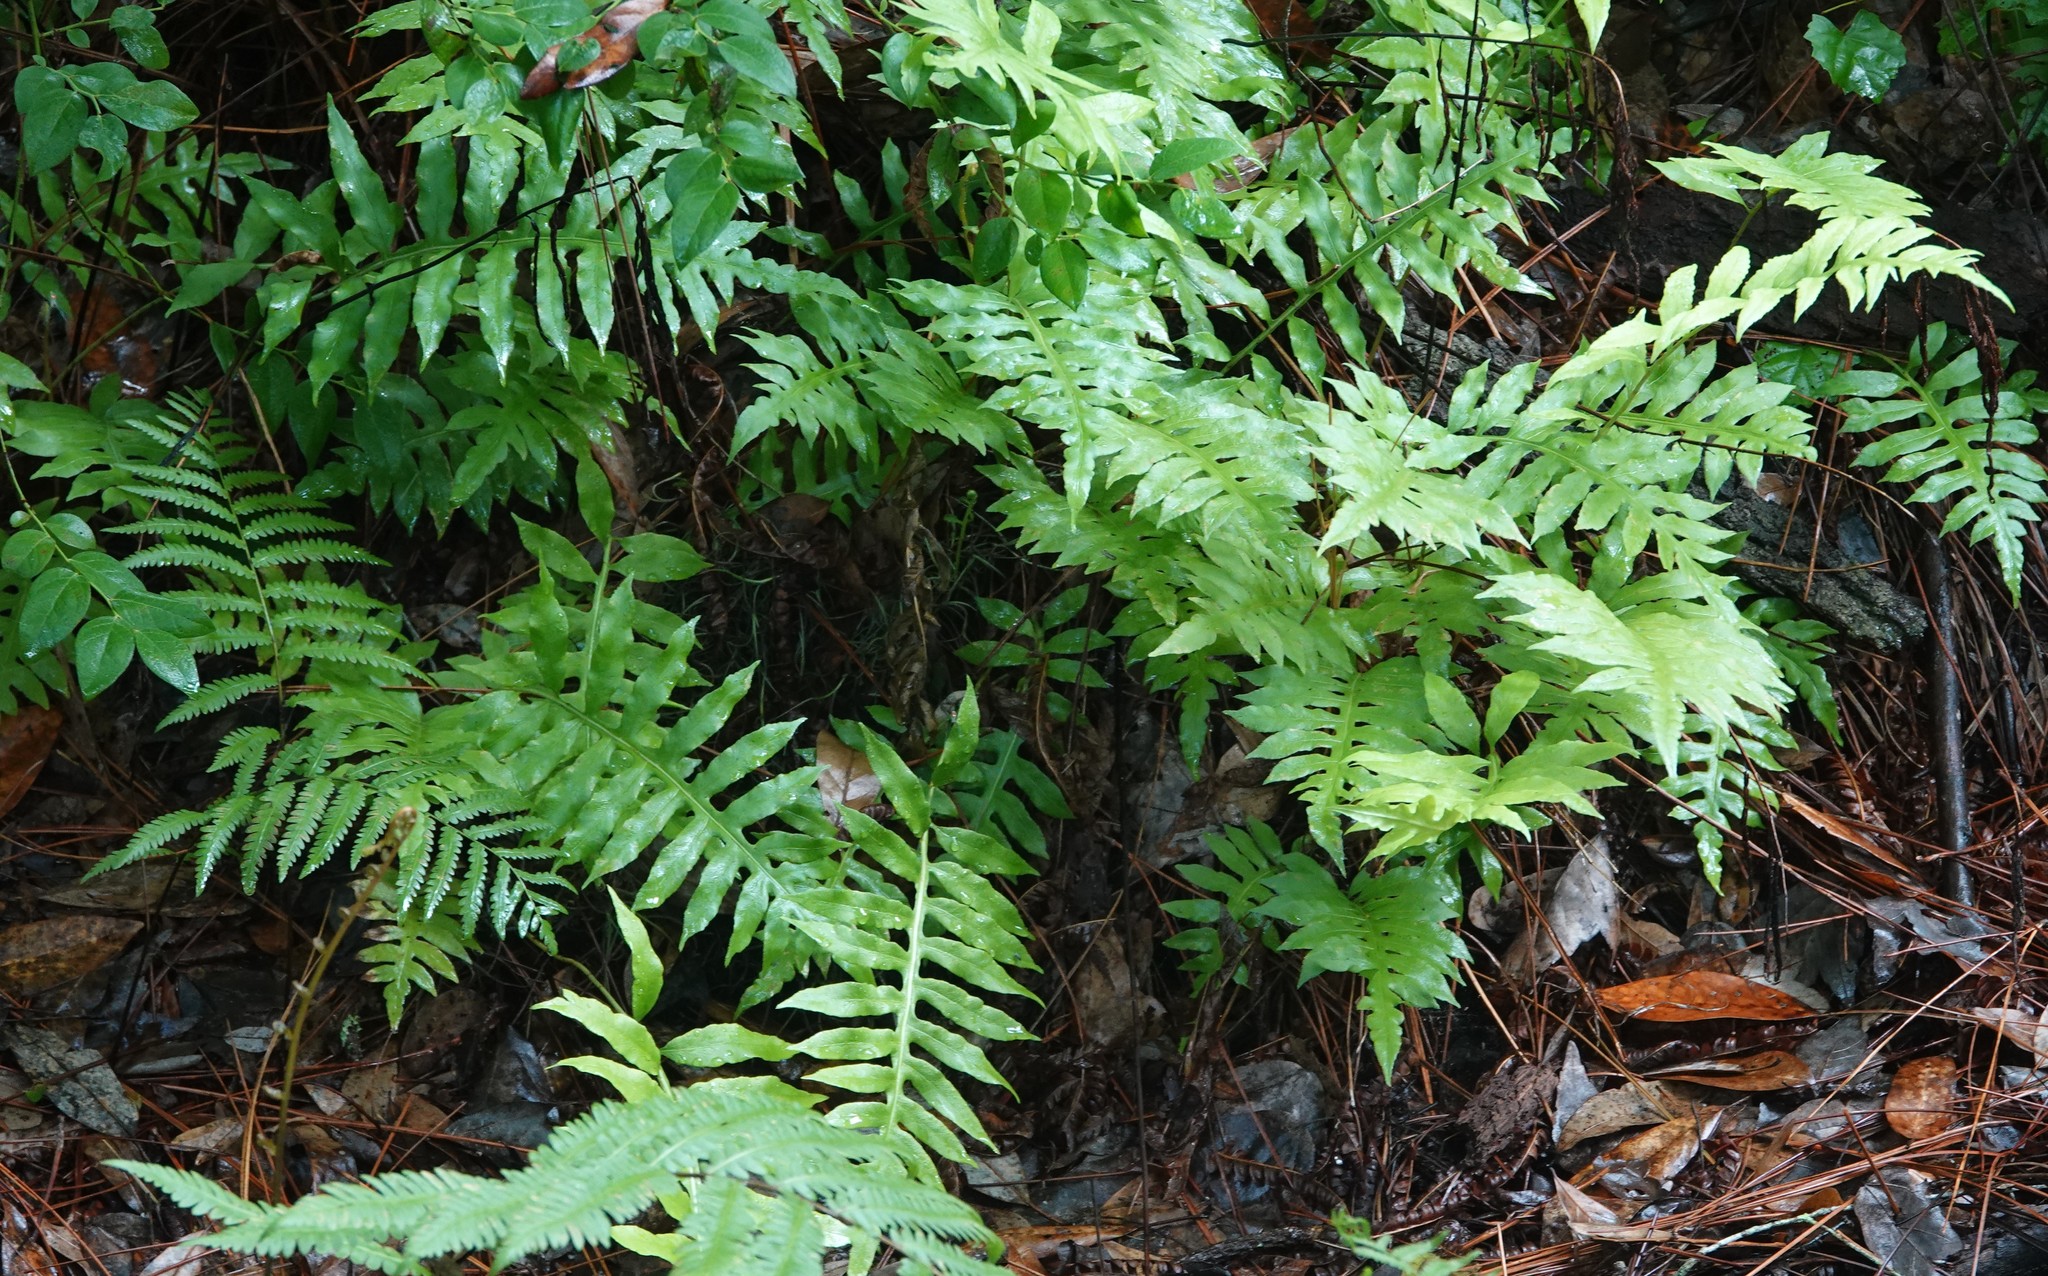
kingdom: Plantae
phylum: Tracheophyta
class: Polypodiopsida
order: Polypodiales
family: Blechnaceae
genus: Lorinseria
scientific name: Lorinseria areolata
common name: Dwarf chain fern
